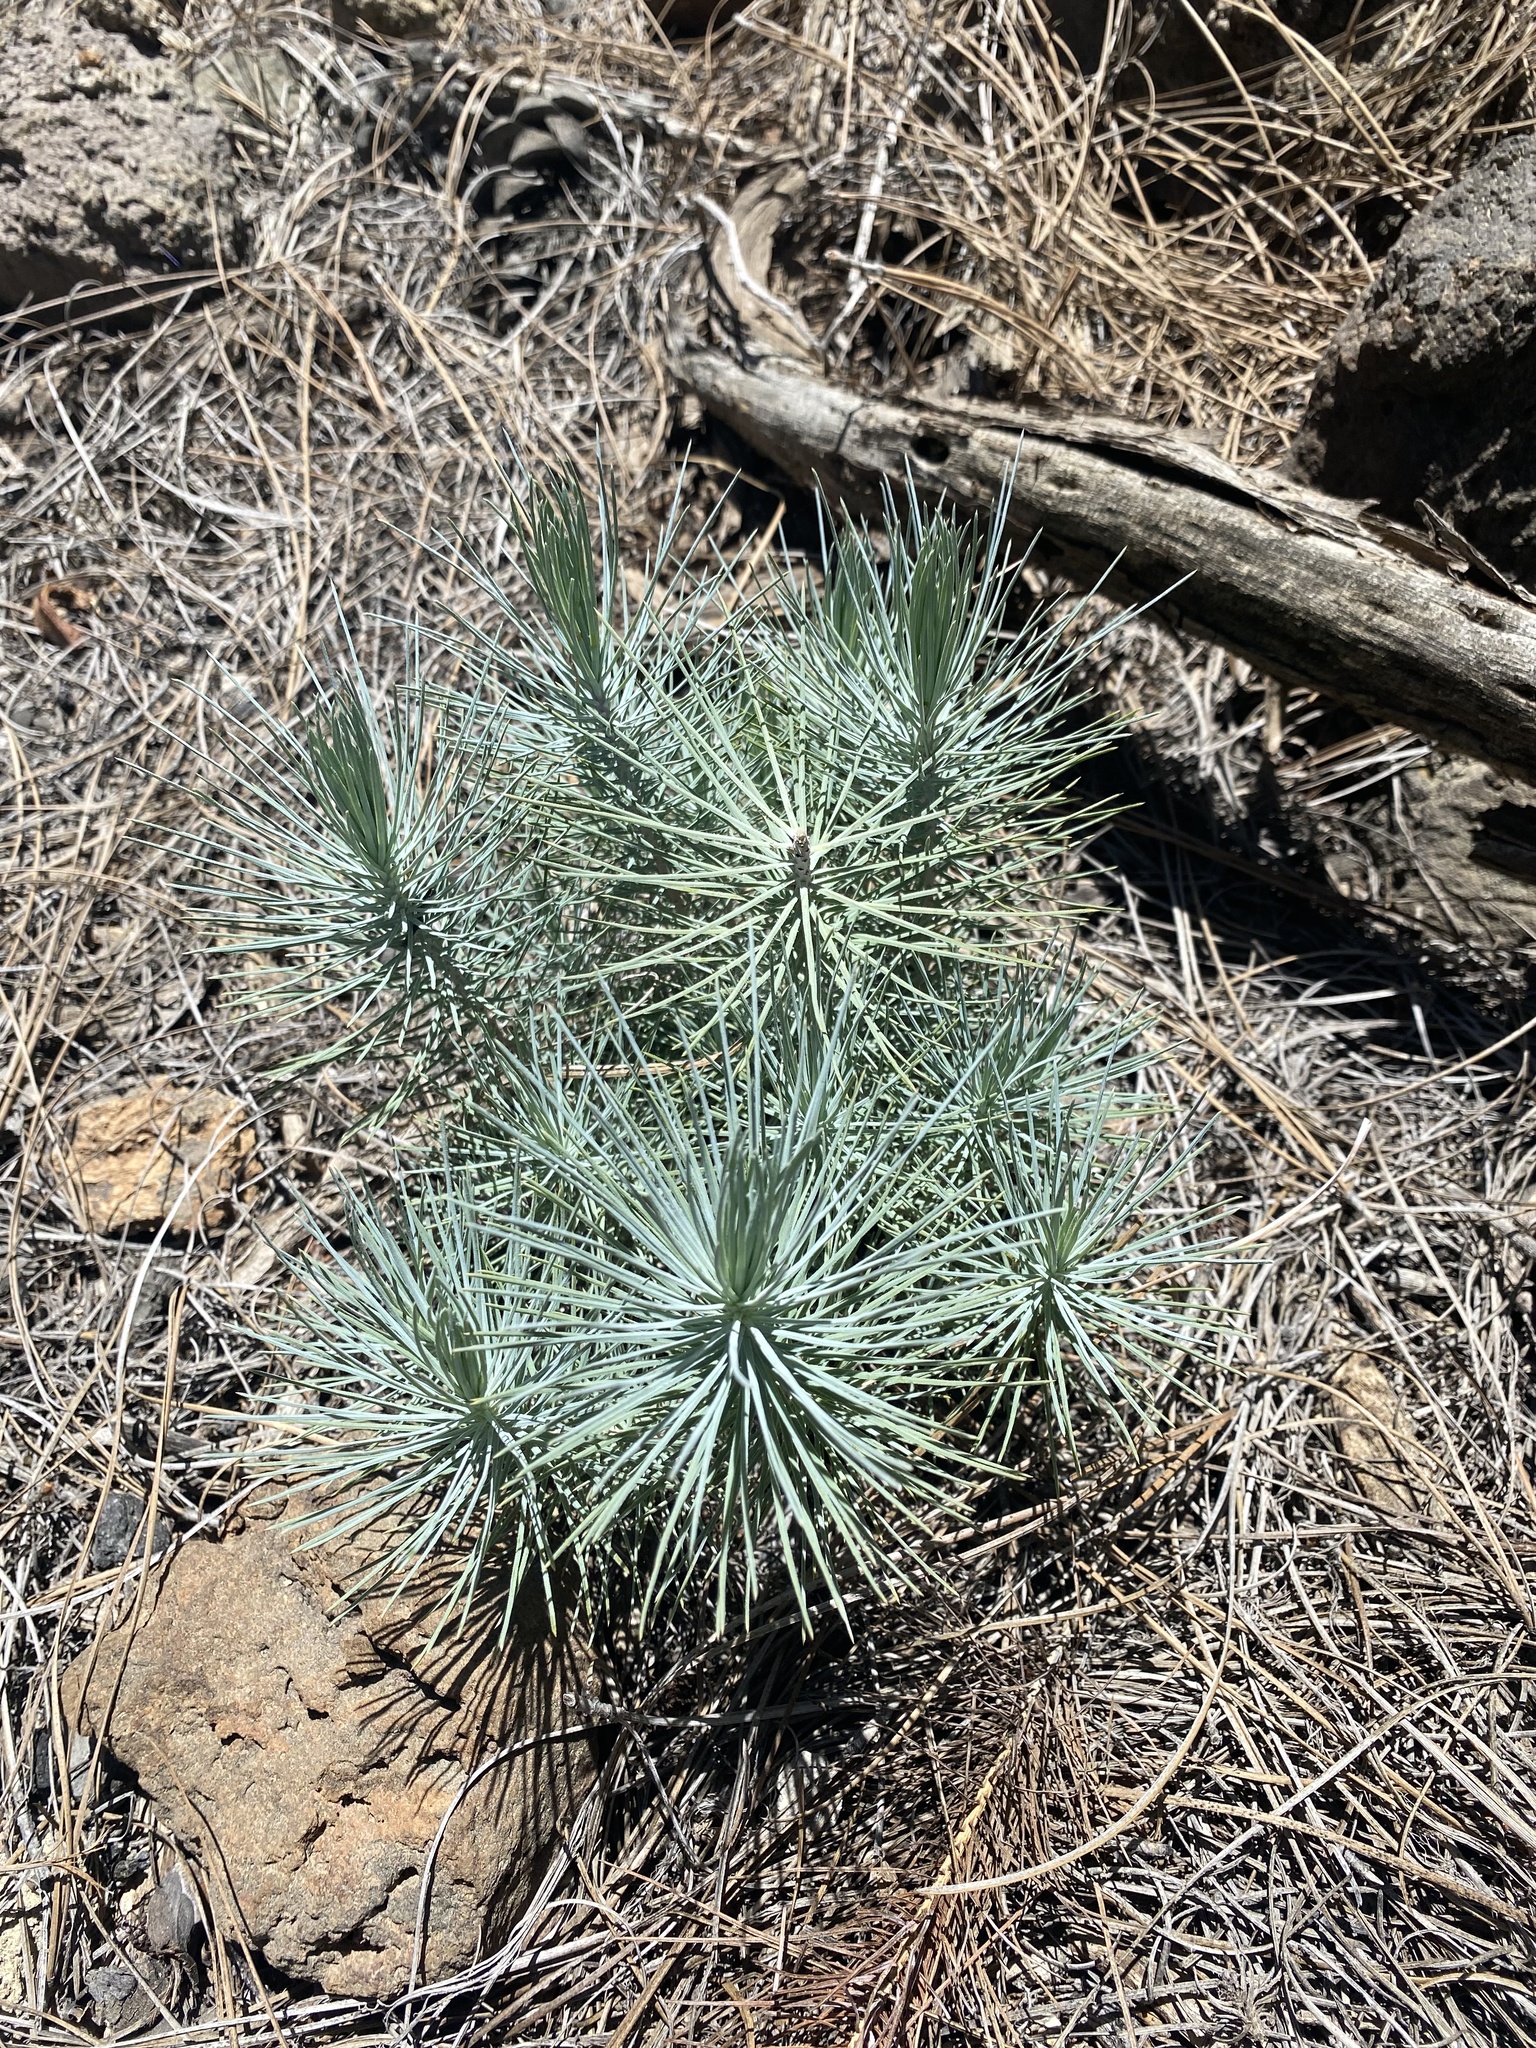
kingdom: Plantae
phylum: Tracheophyta
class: Pinopsida
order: Pinales
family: Pinaceae
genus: Pinus
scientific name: Pinus canariensis
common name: Canary islands pine
